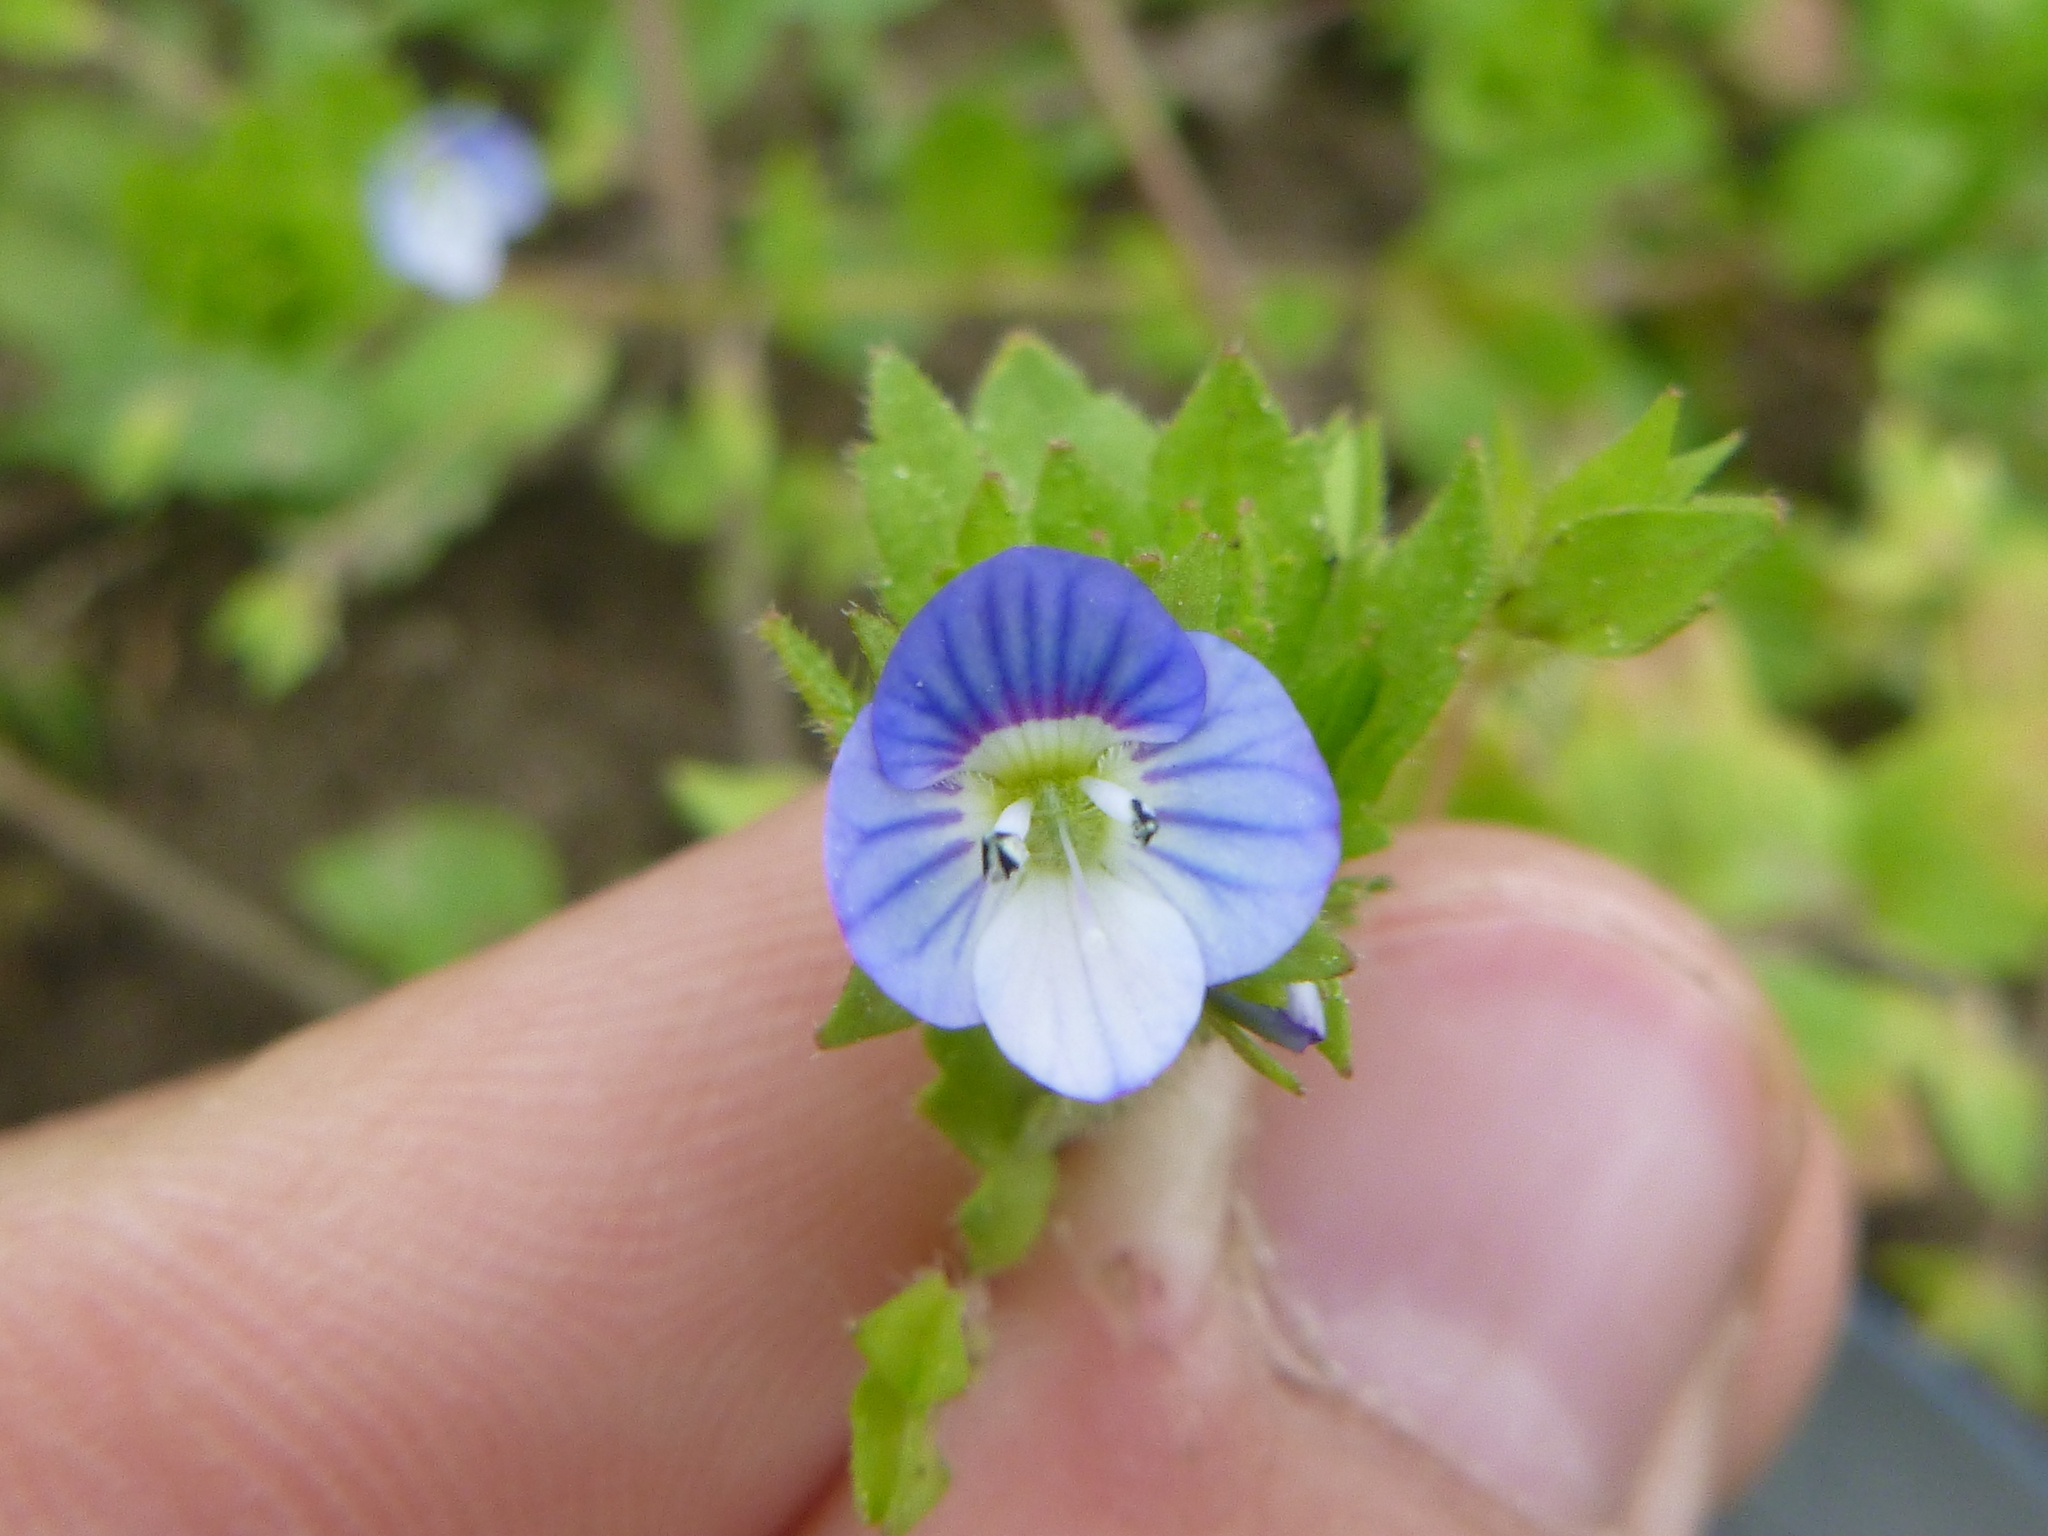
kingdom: Plantae
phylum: Tracheophyta
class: Magnoliopsida
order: Lamiales
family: Plantaginaceae
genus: Veronica
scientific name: Veronica persica
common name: Common field-speedwell
